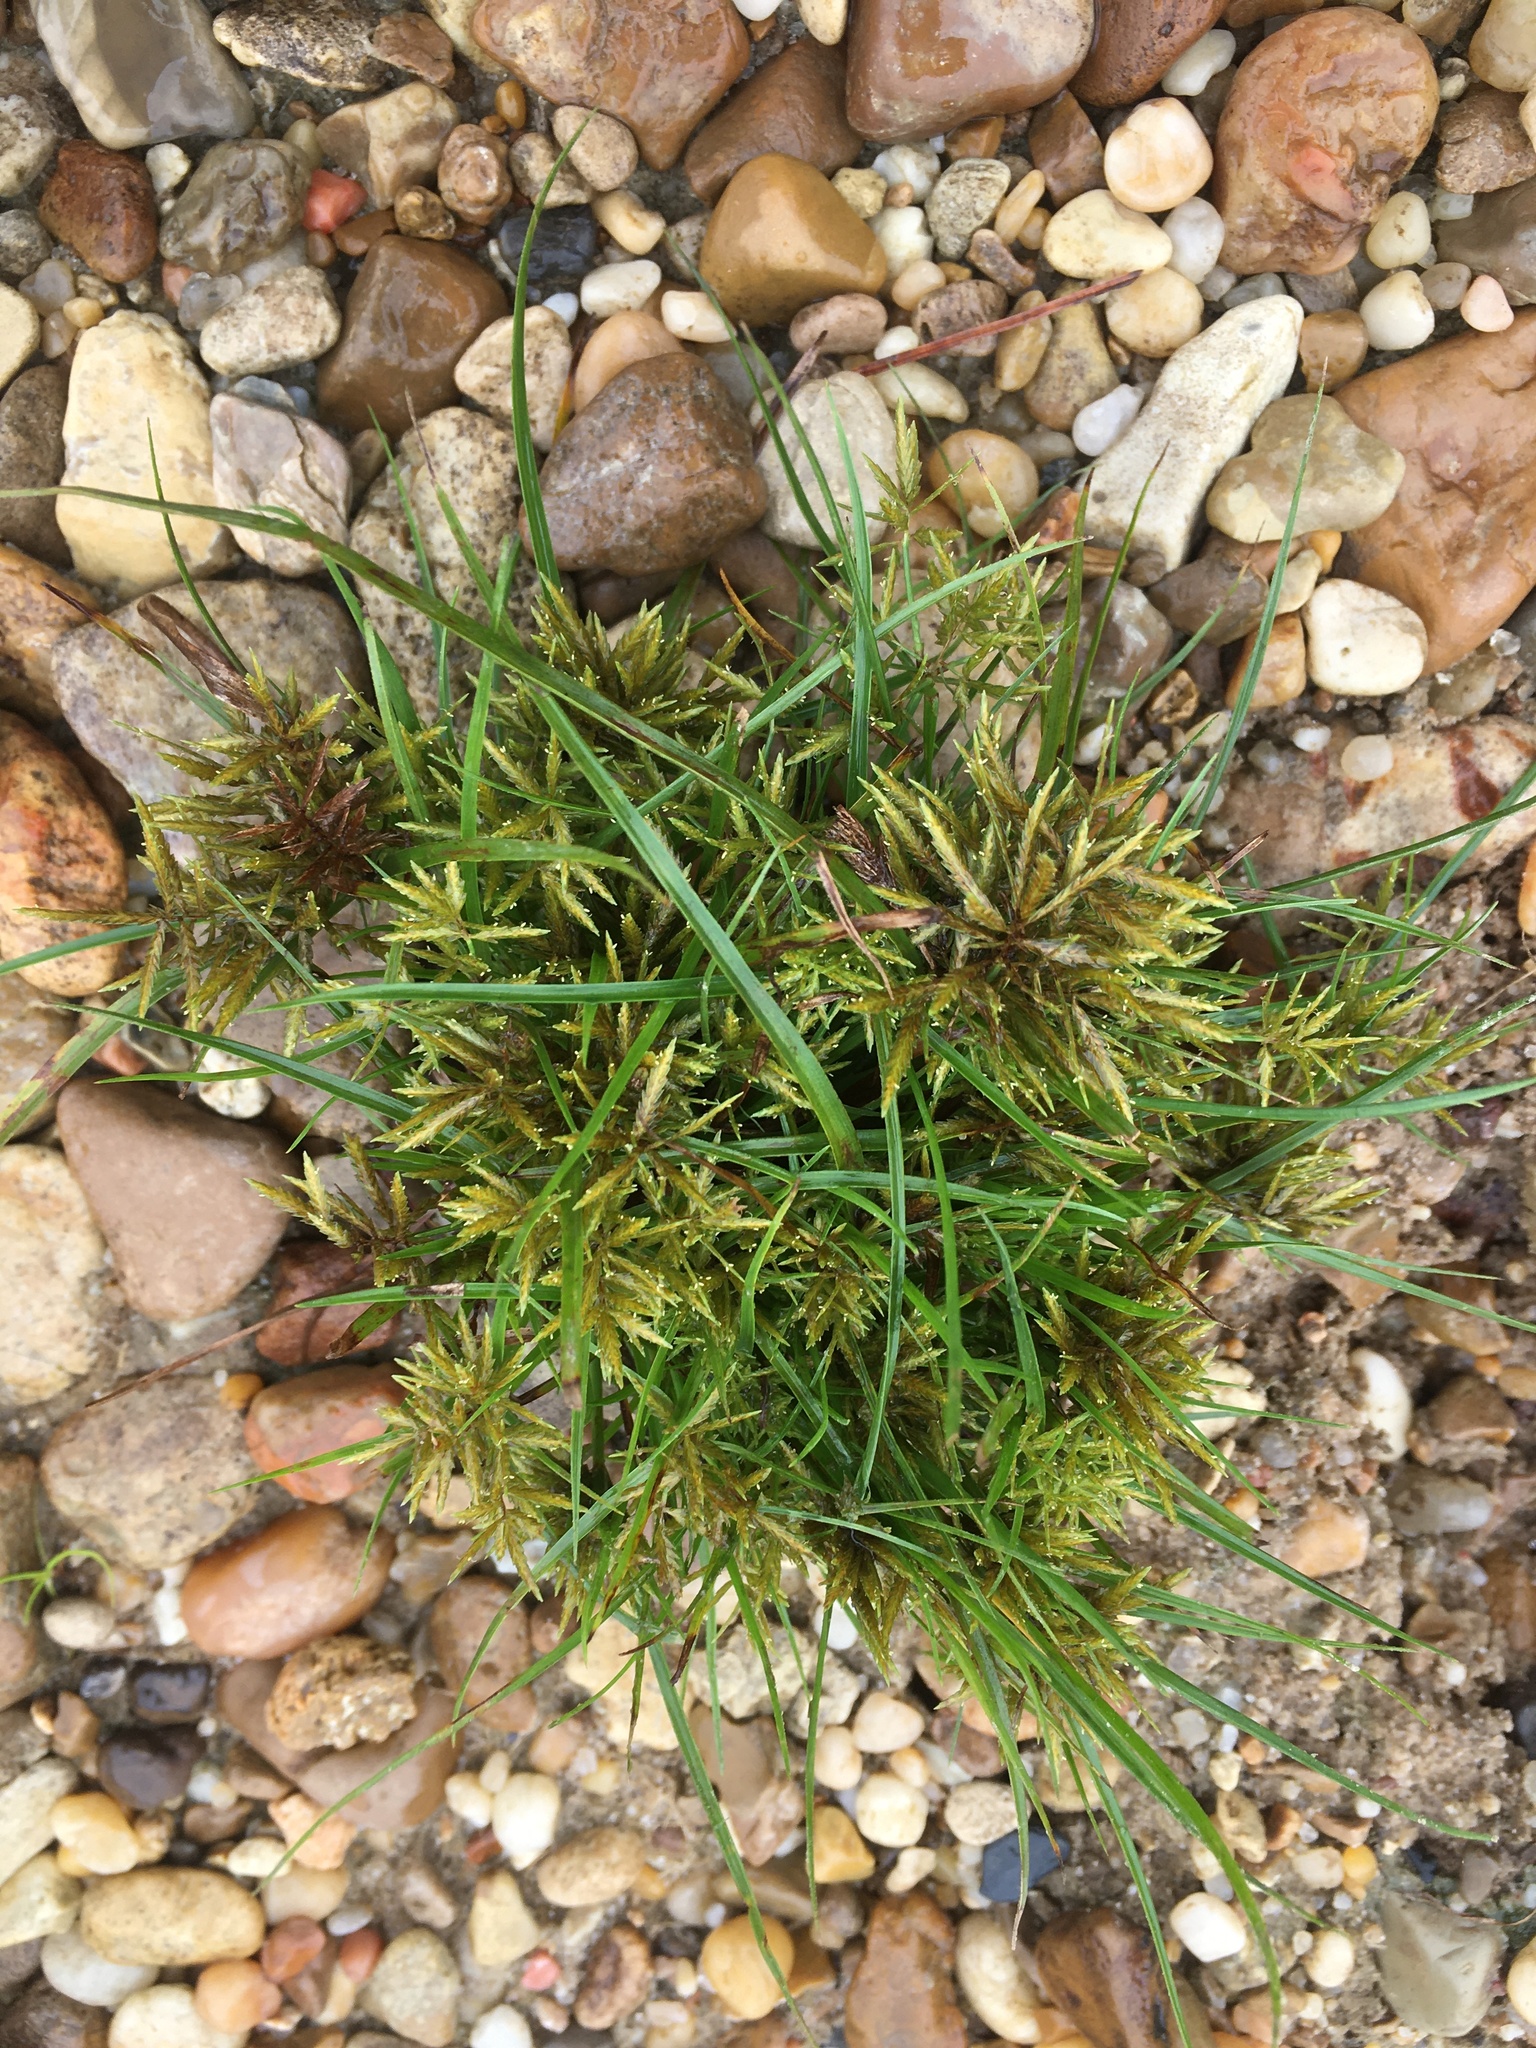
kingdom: Plantae
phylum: Tracheophyta
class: Liliopsida
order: Poales
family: Cyperaceae
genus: Cyperus
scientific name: Cyperus polystachyos
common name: Bunchy flat sedge
